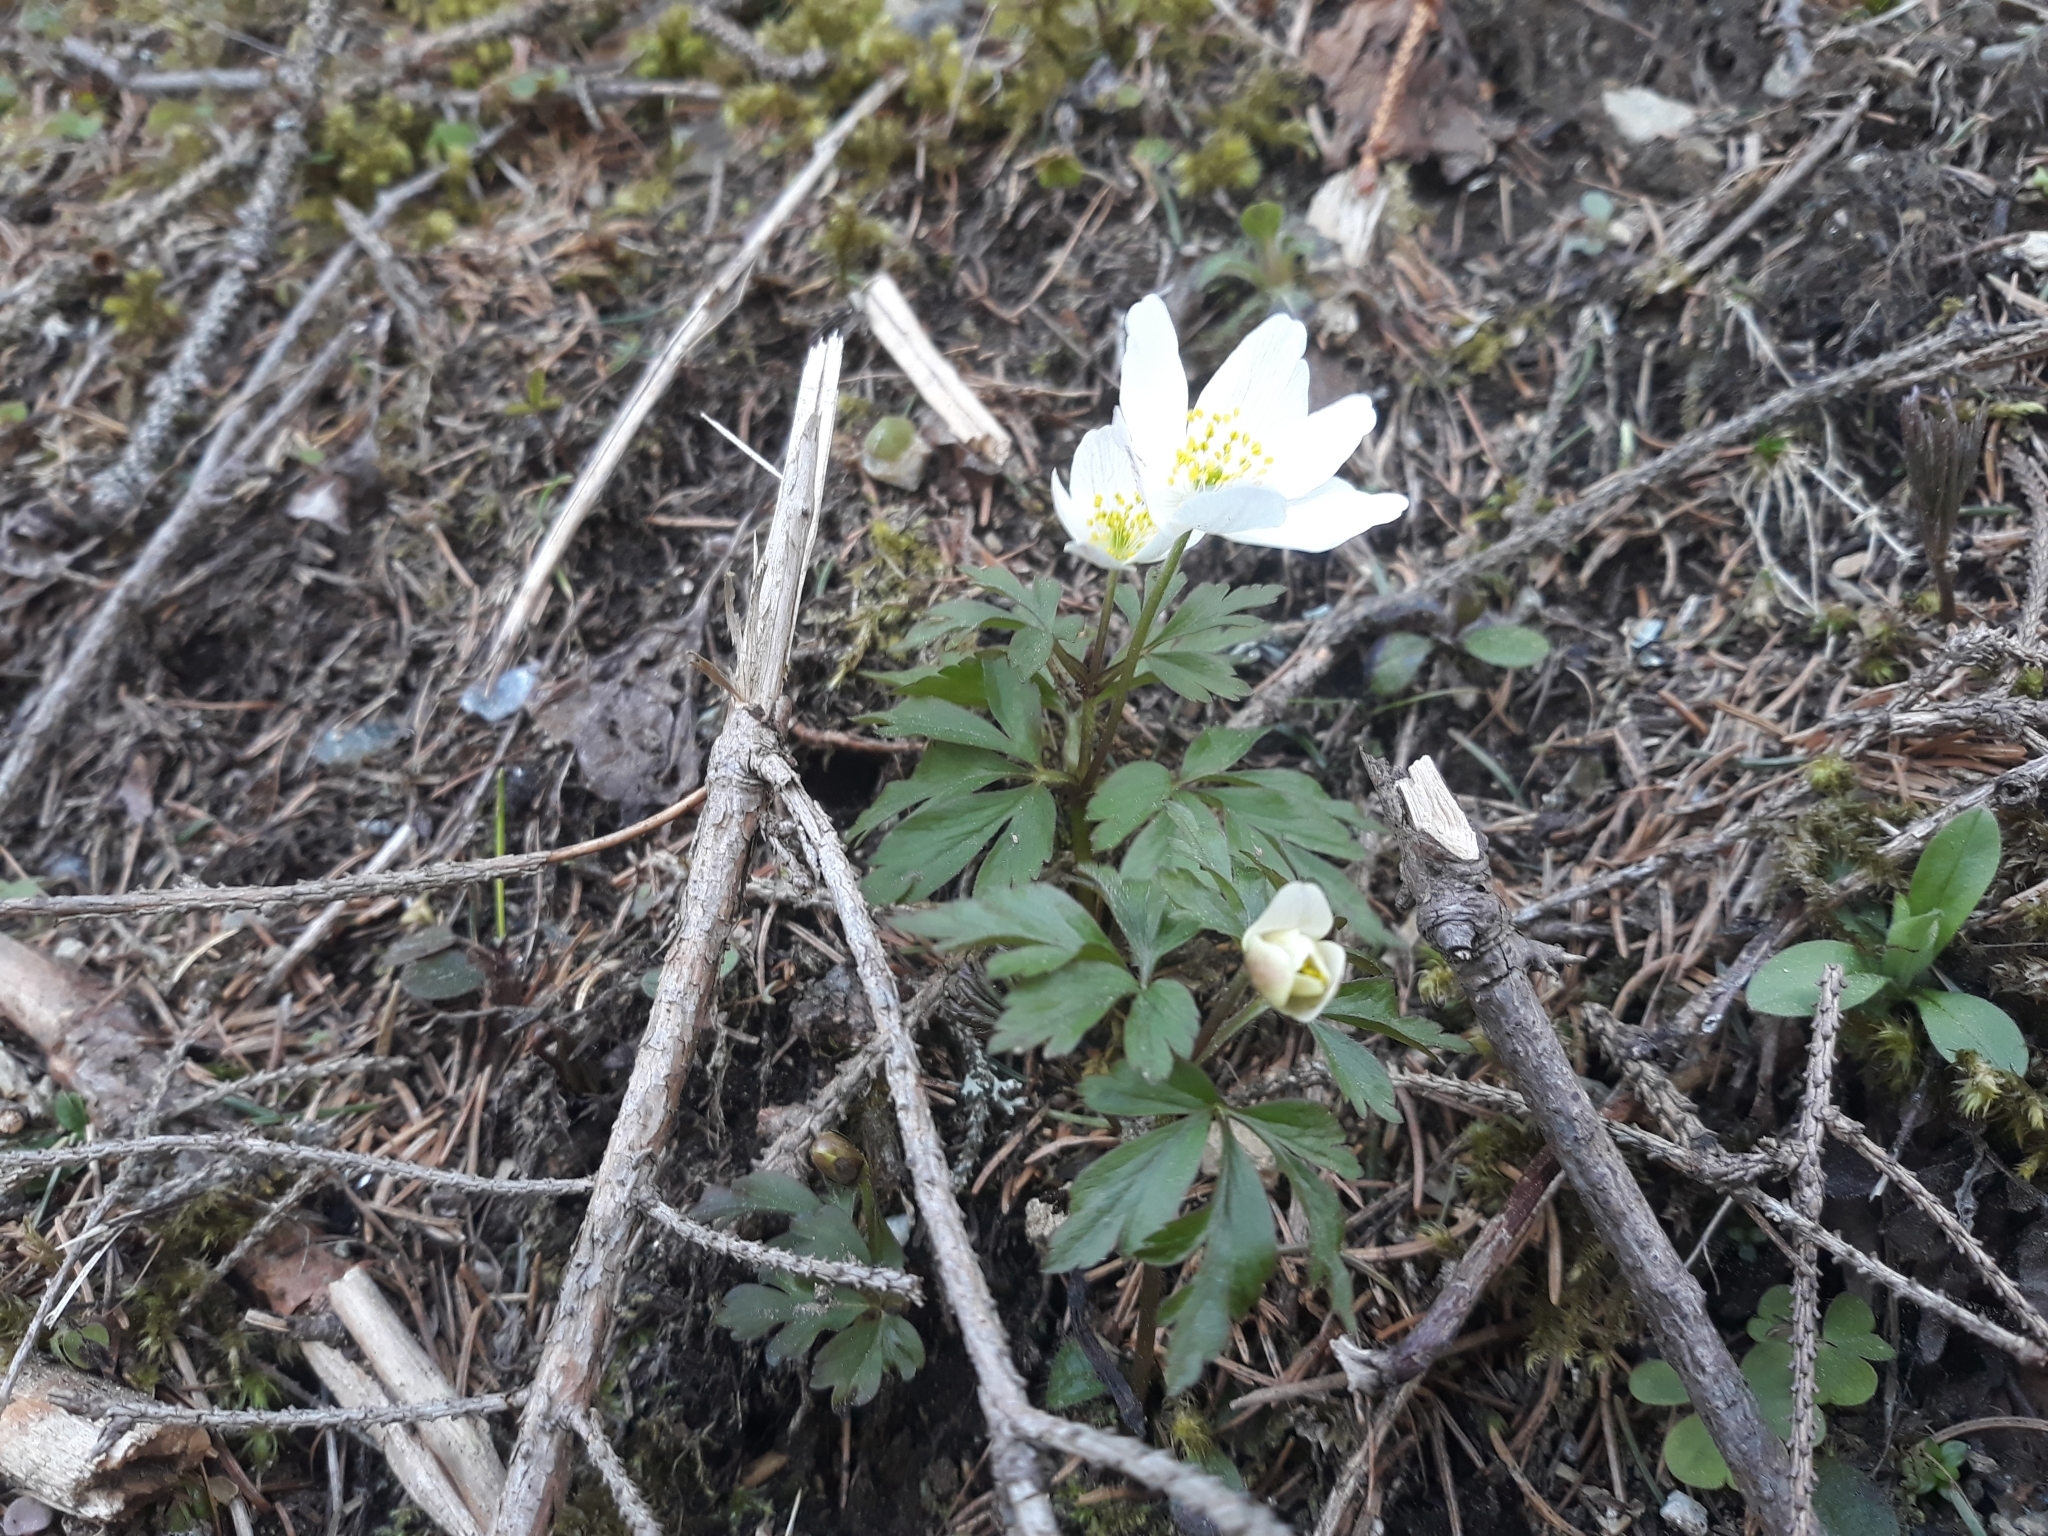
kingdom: Plantae
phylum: Tracheophyta
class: Magnoliopsida
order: Ranunculales
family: Ranunculaceae
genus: Anemone
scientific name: Anemone nemorosa
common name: Wood anemone
